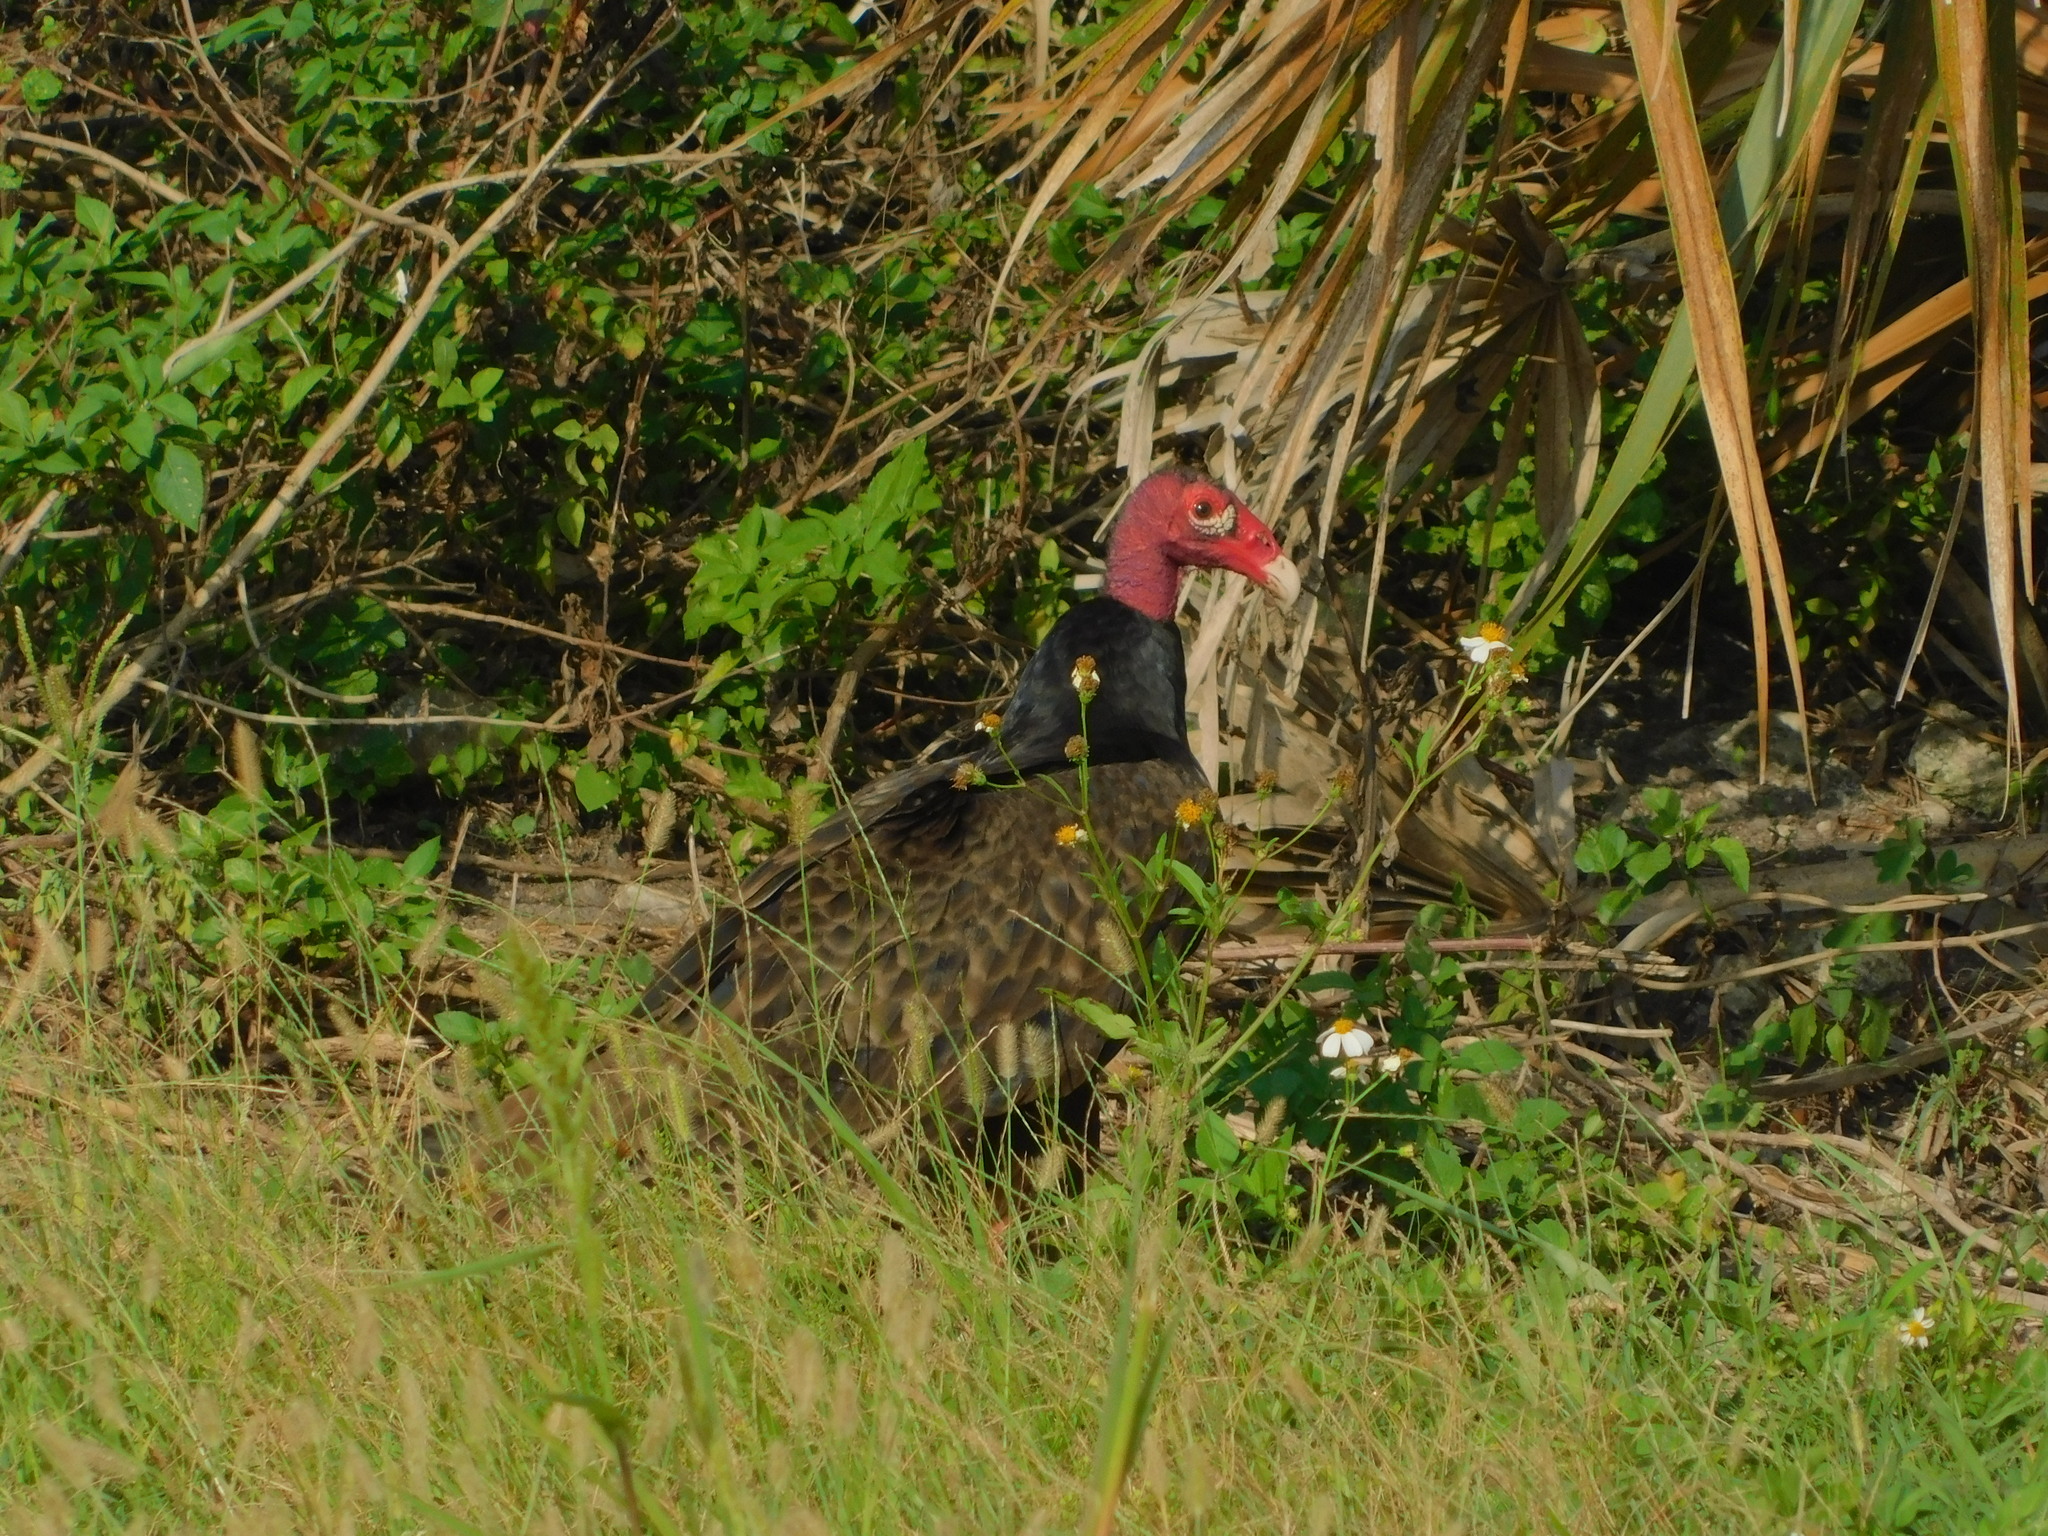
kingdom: Plantae
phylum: Tracheophyta
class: Magnoliopsida
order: Asterales
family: Asteraceae
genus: Bidens
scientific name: Bidens alba
